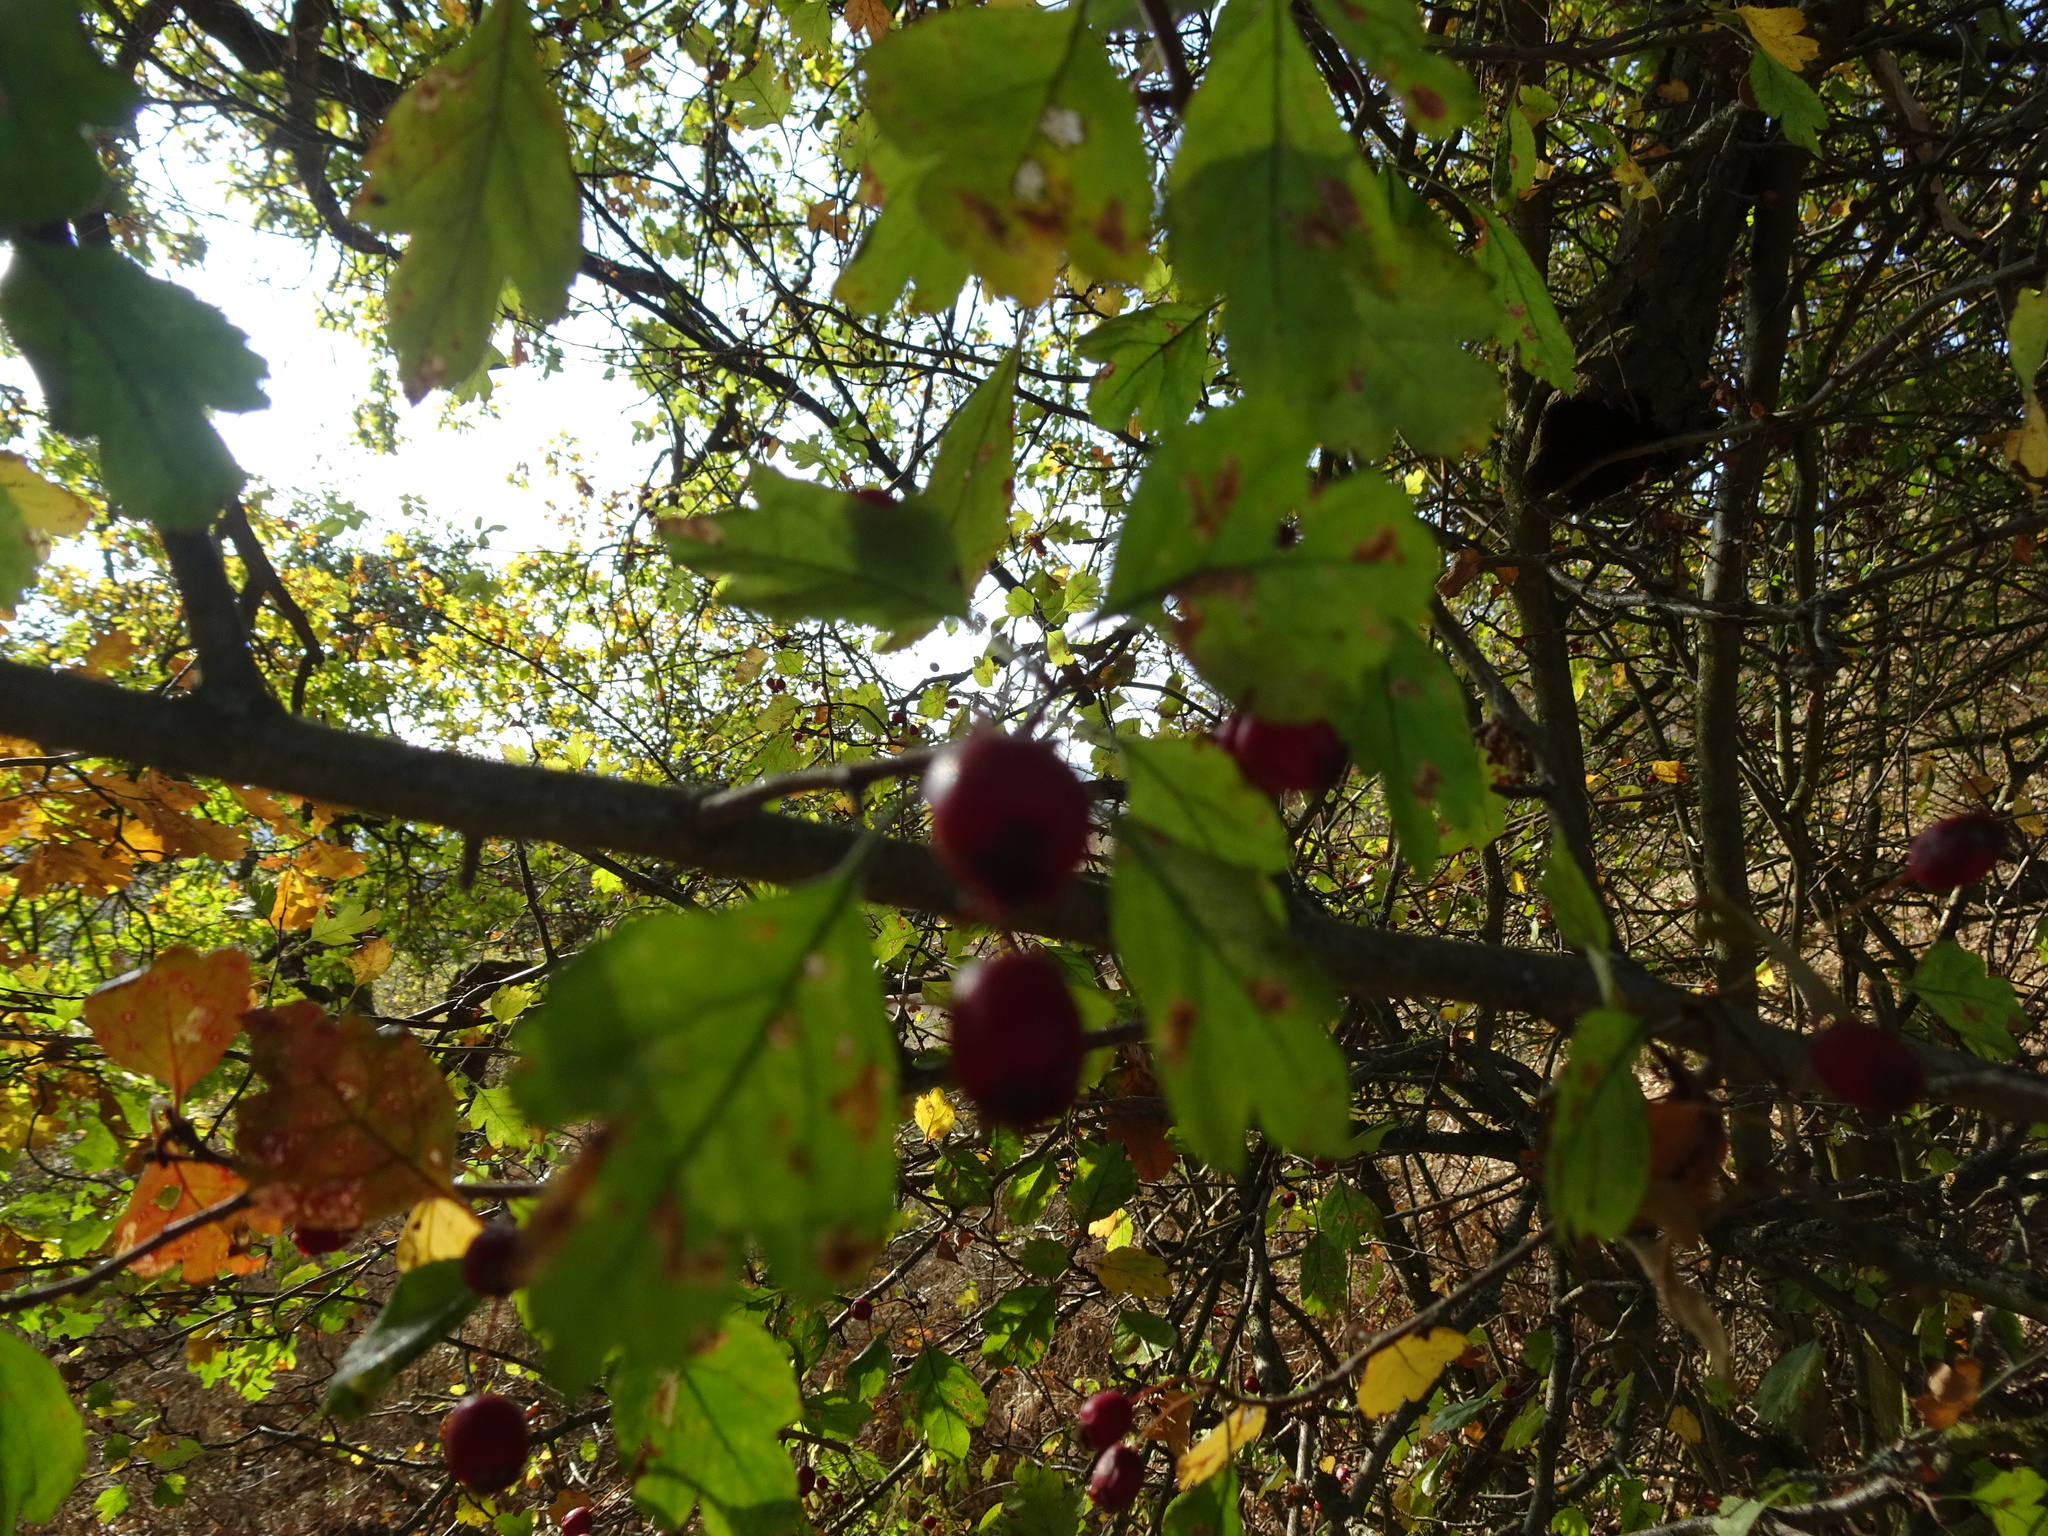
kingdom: Plantae
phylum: Tracheophyta
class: Magnoliopsida
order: Rosales
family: Rosaceae
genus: Crataegus
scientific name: Crataegus laevigata
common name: Midland hawthorn
